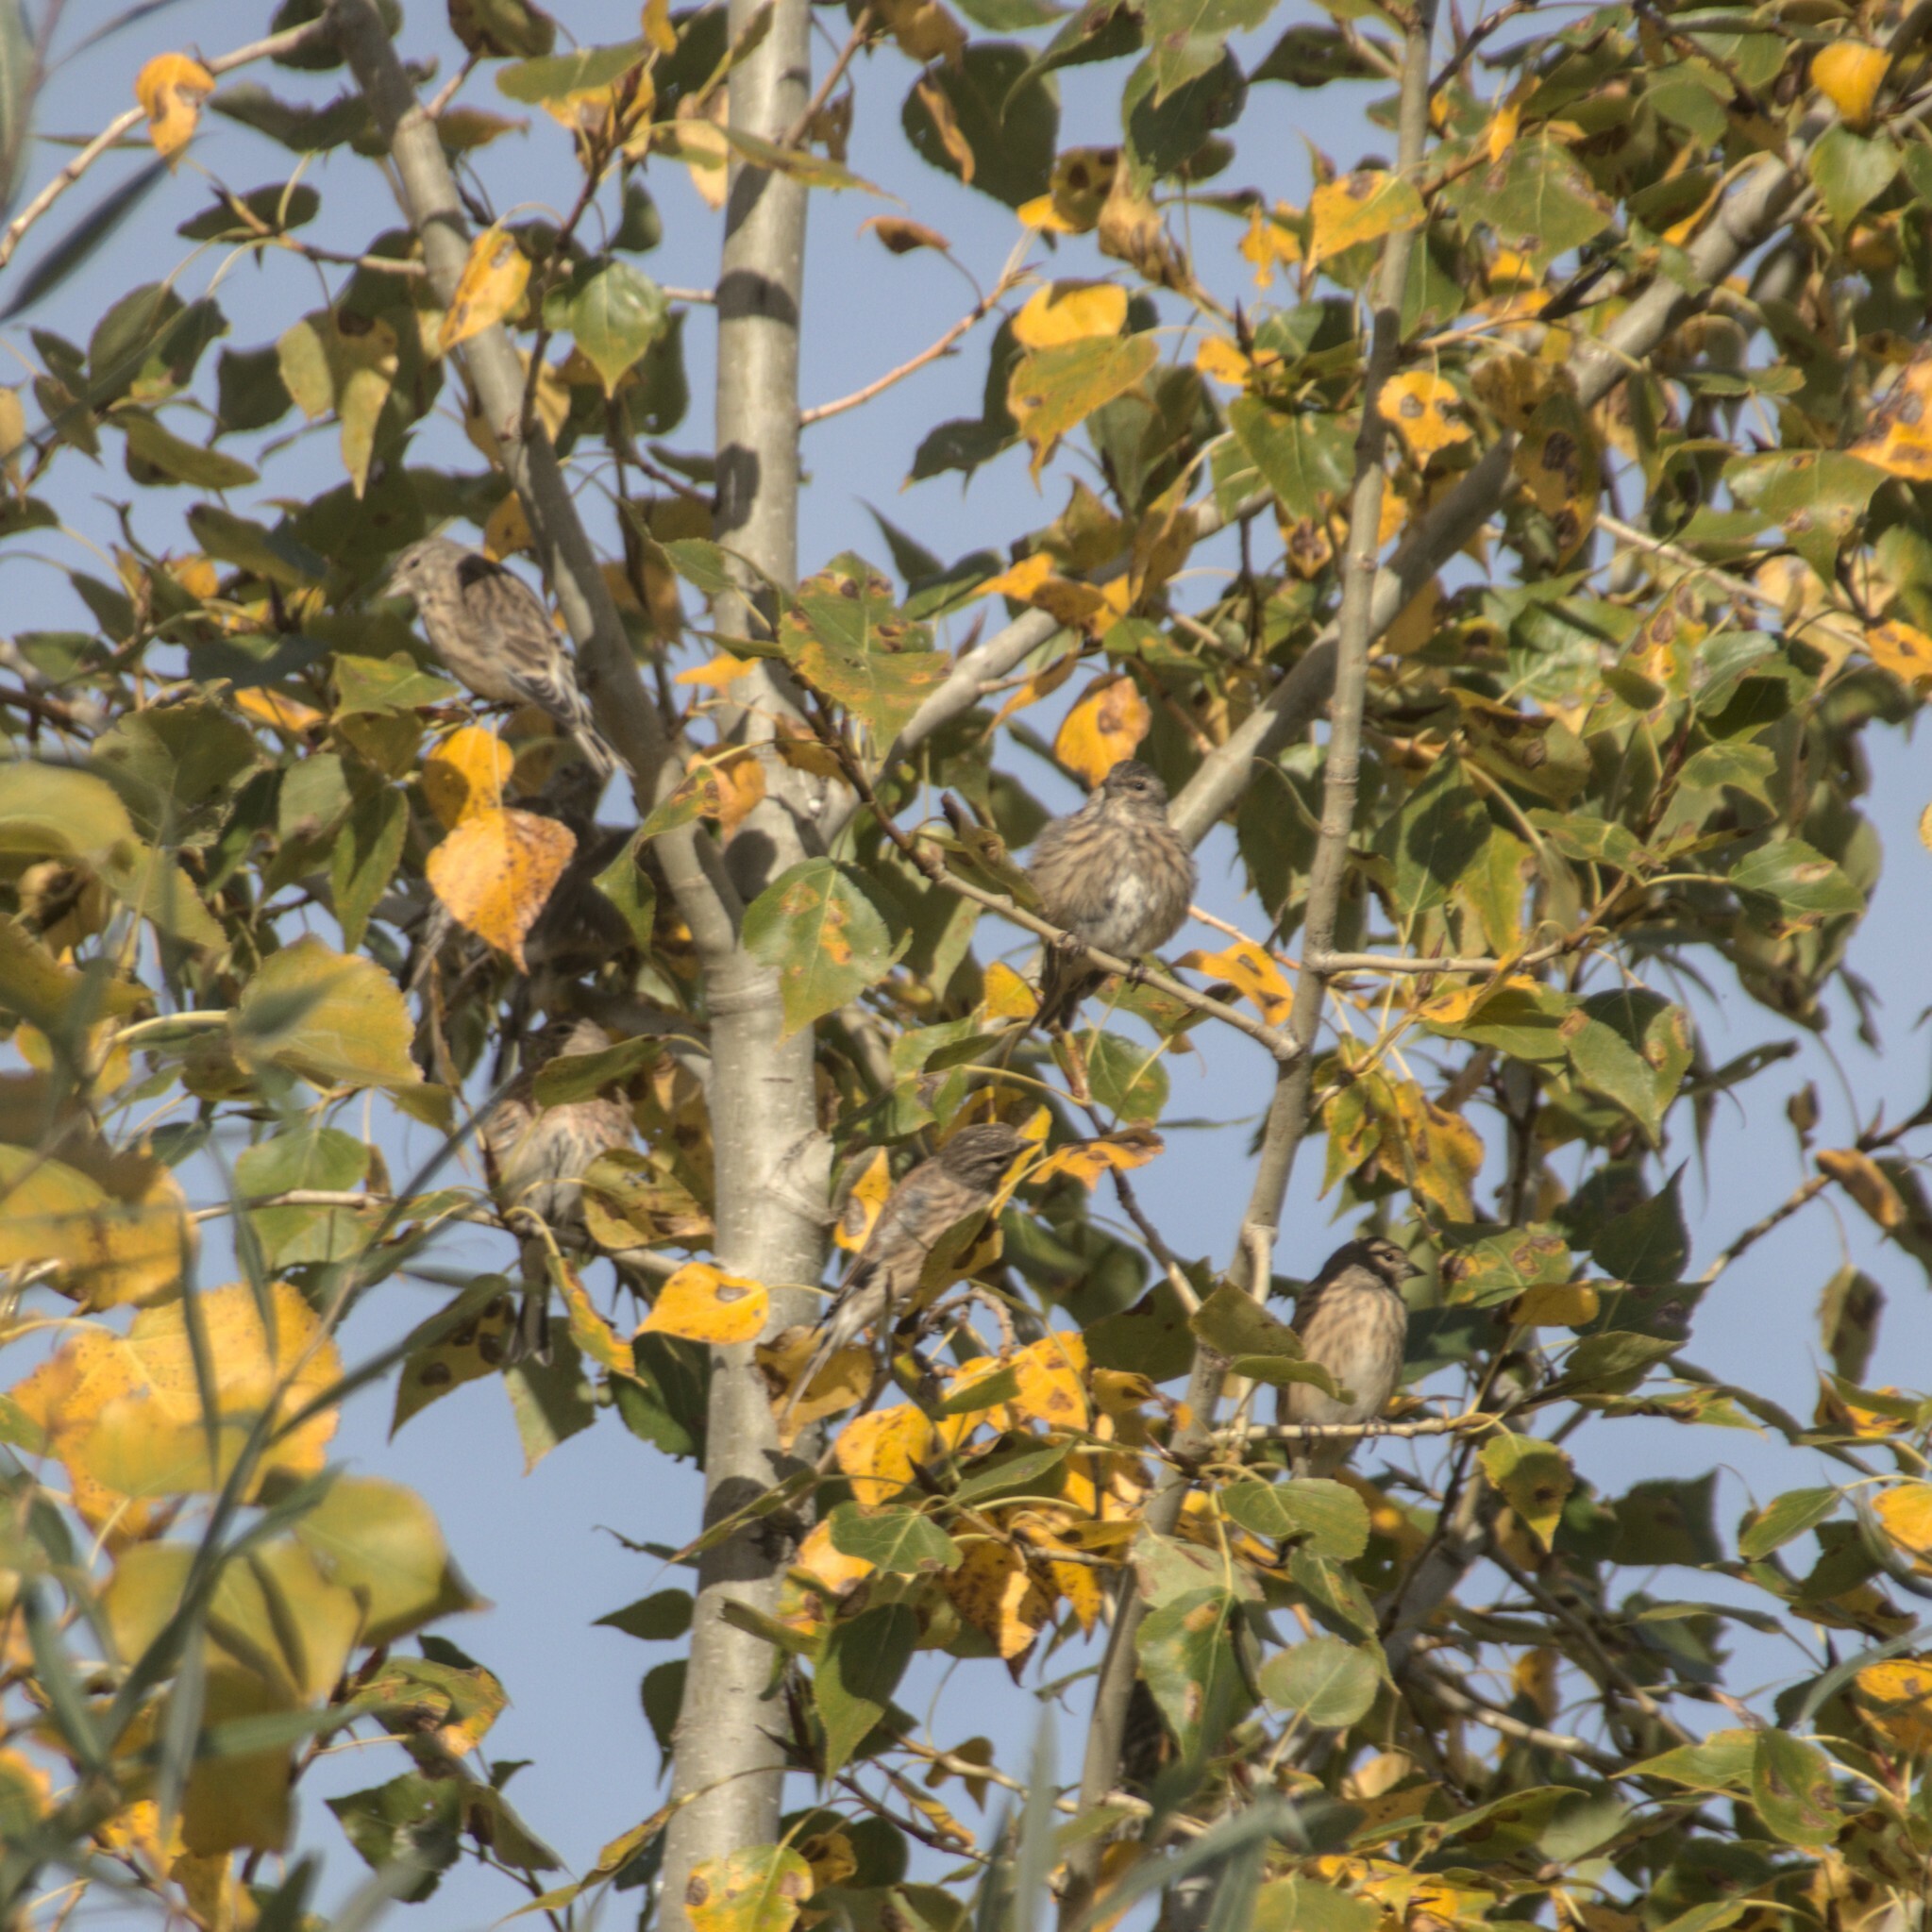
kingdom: Animalia
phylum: Chordata
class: Aves
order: Passeriformes
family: Fringillidae
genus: Linaria
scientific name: Linaria cannabina
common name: Common linnet
